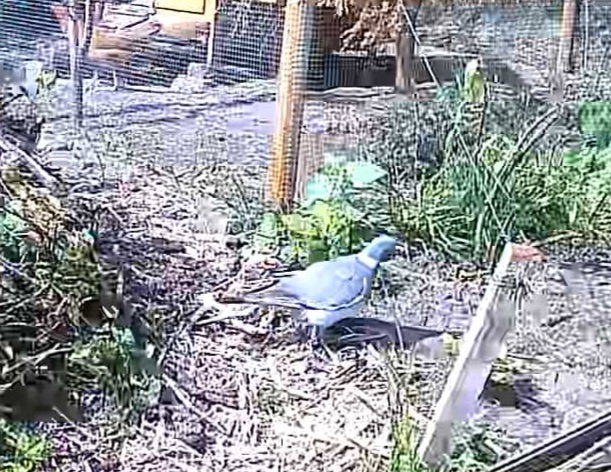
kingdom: Animalia
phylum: Chordata
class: Aves
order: Columbiformes
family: Columbidae
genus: Columba
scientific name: Columba palumbus
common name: Common wood pigeon
